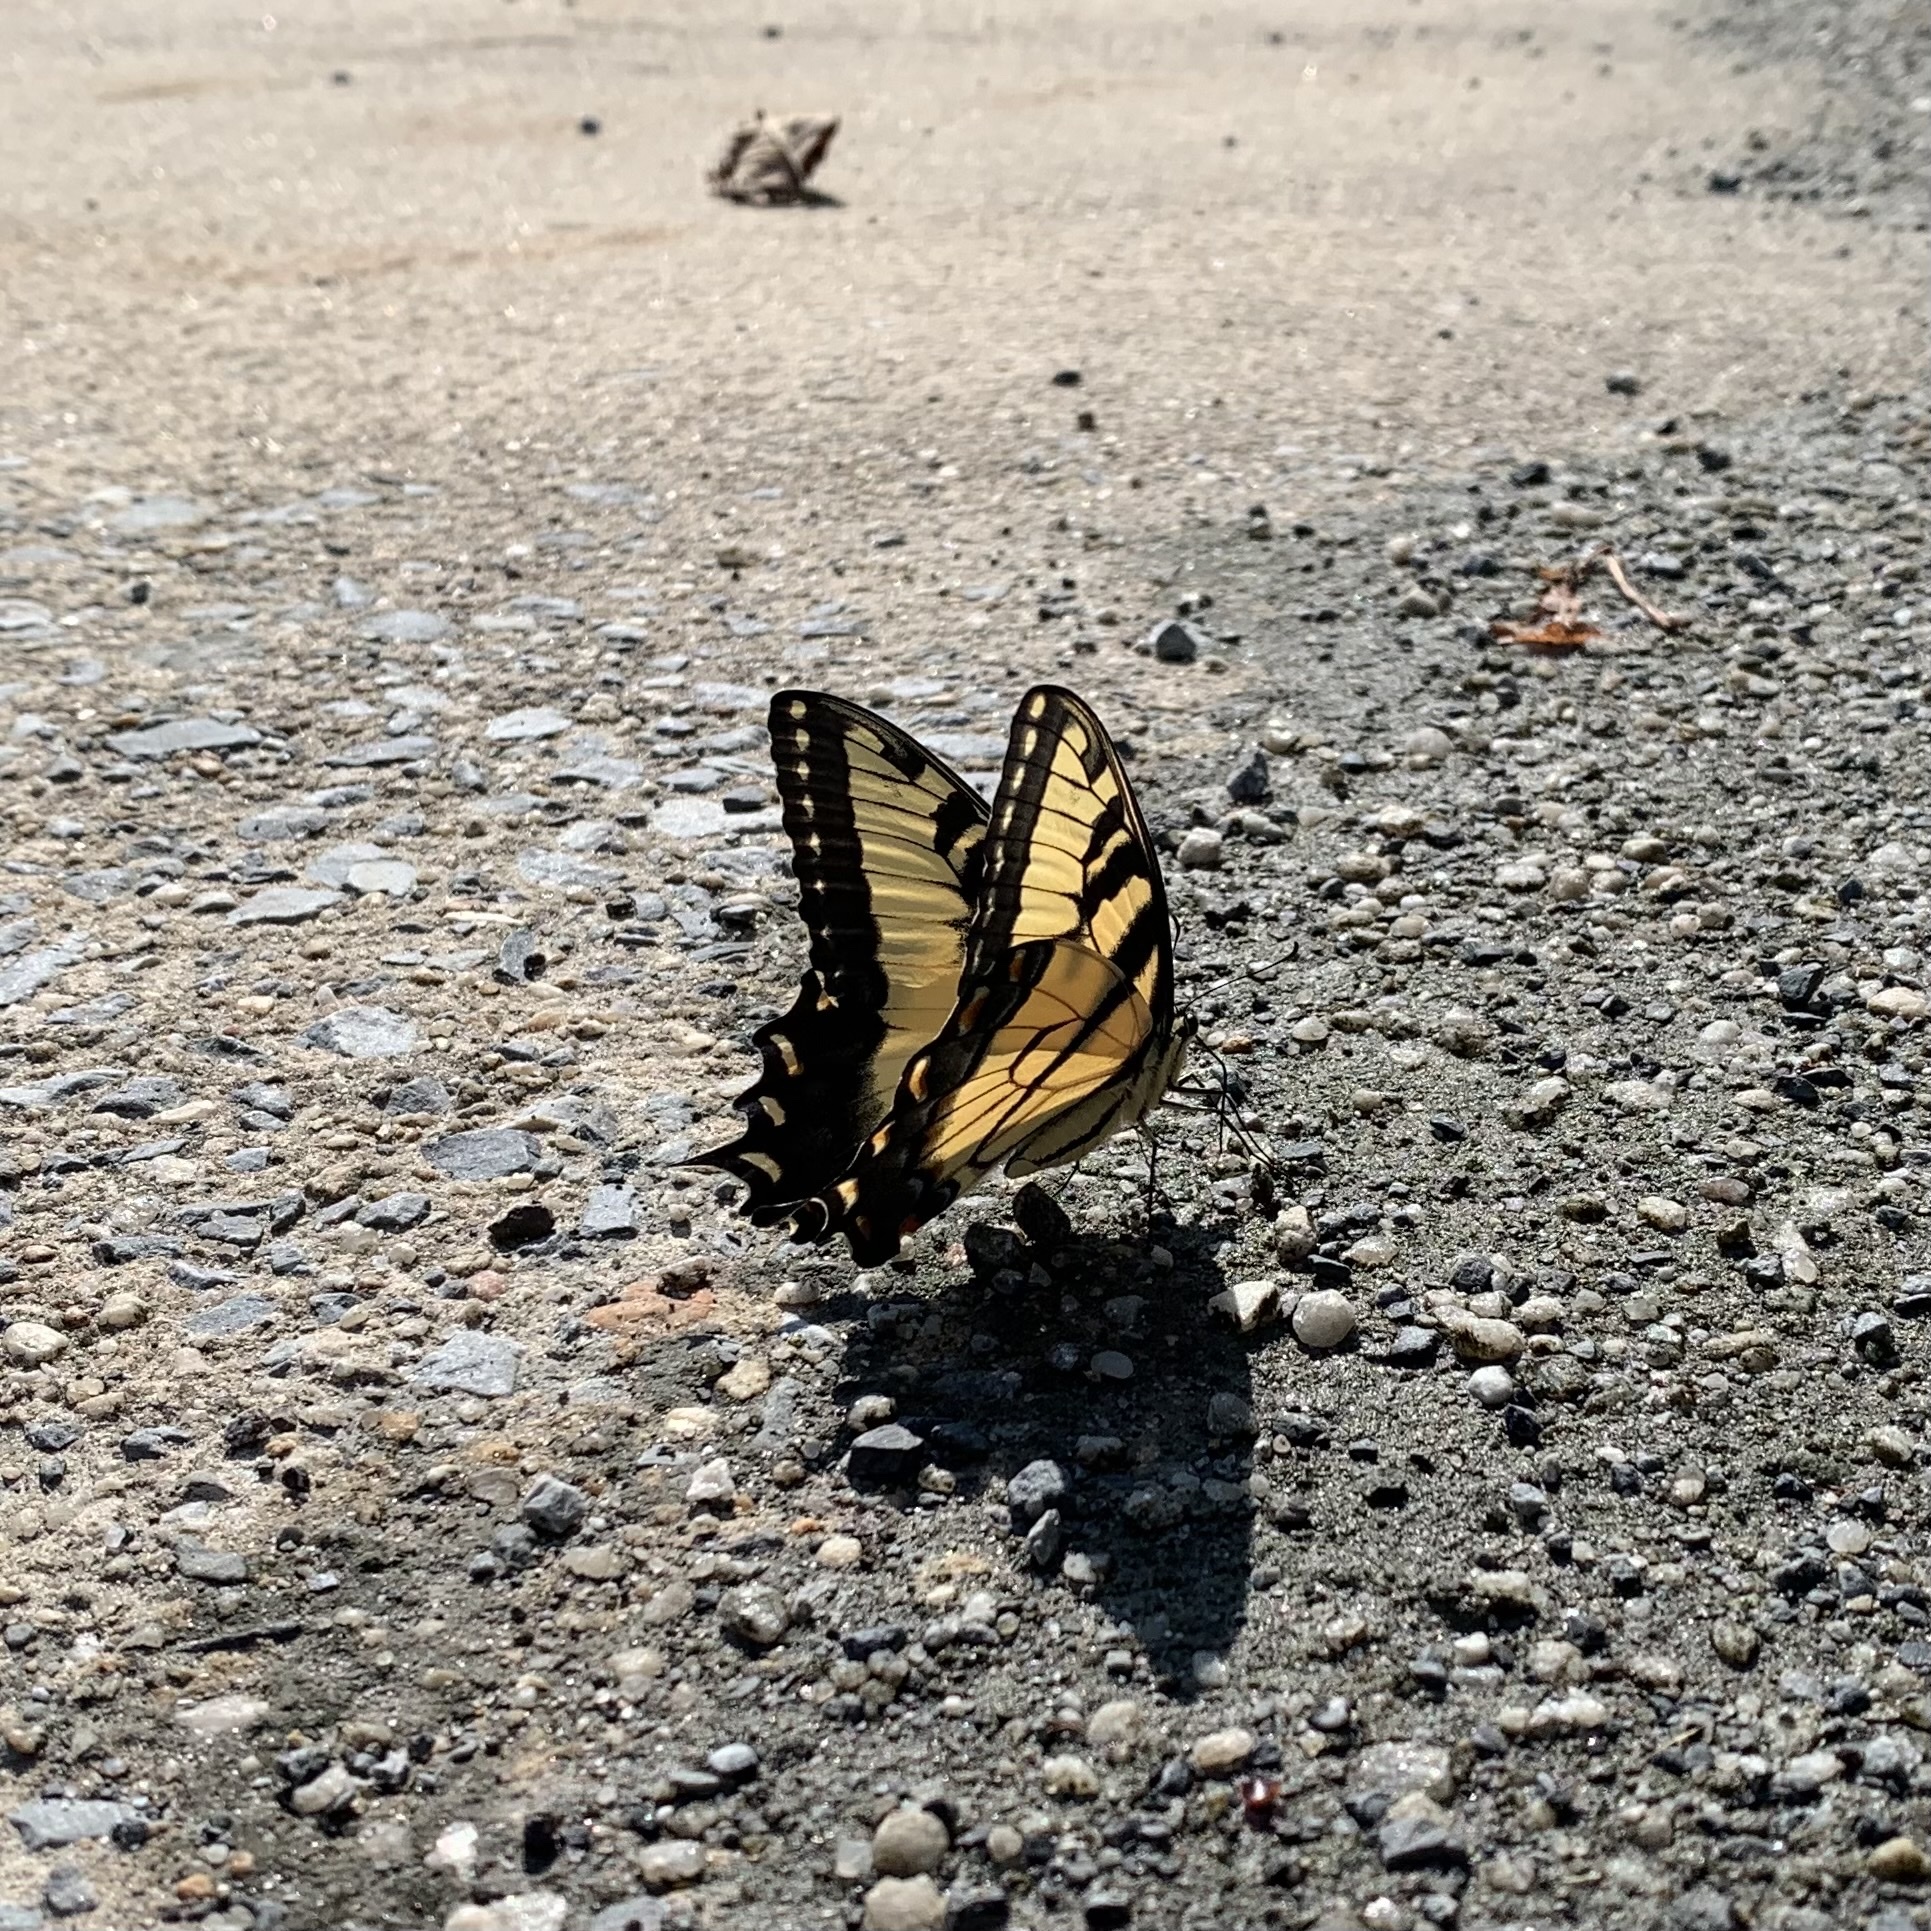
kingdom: Animalia
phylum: Arthropoda
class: Insecta
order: Lepidoptera
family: Papilionidae
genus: Papilio
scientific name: Papilio glaucus
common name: Tiger swallowtail
